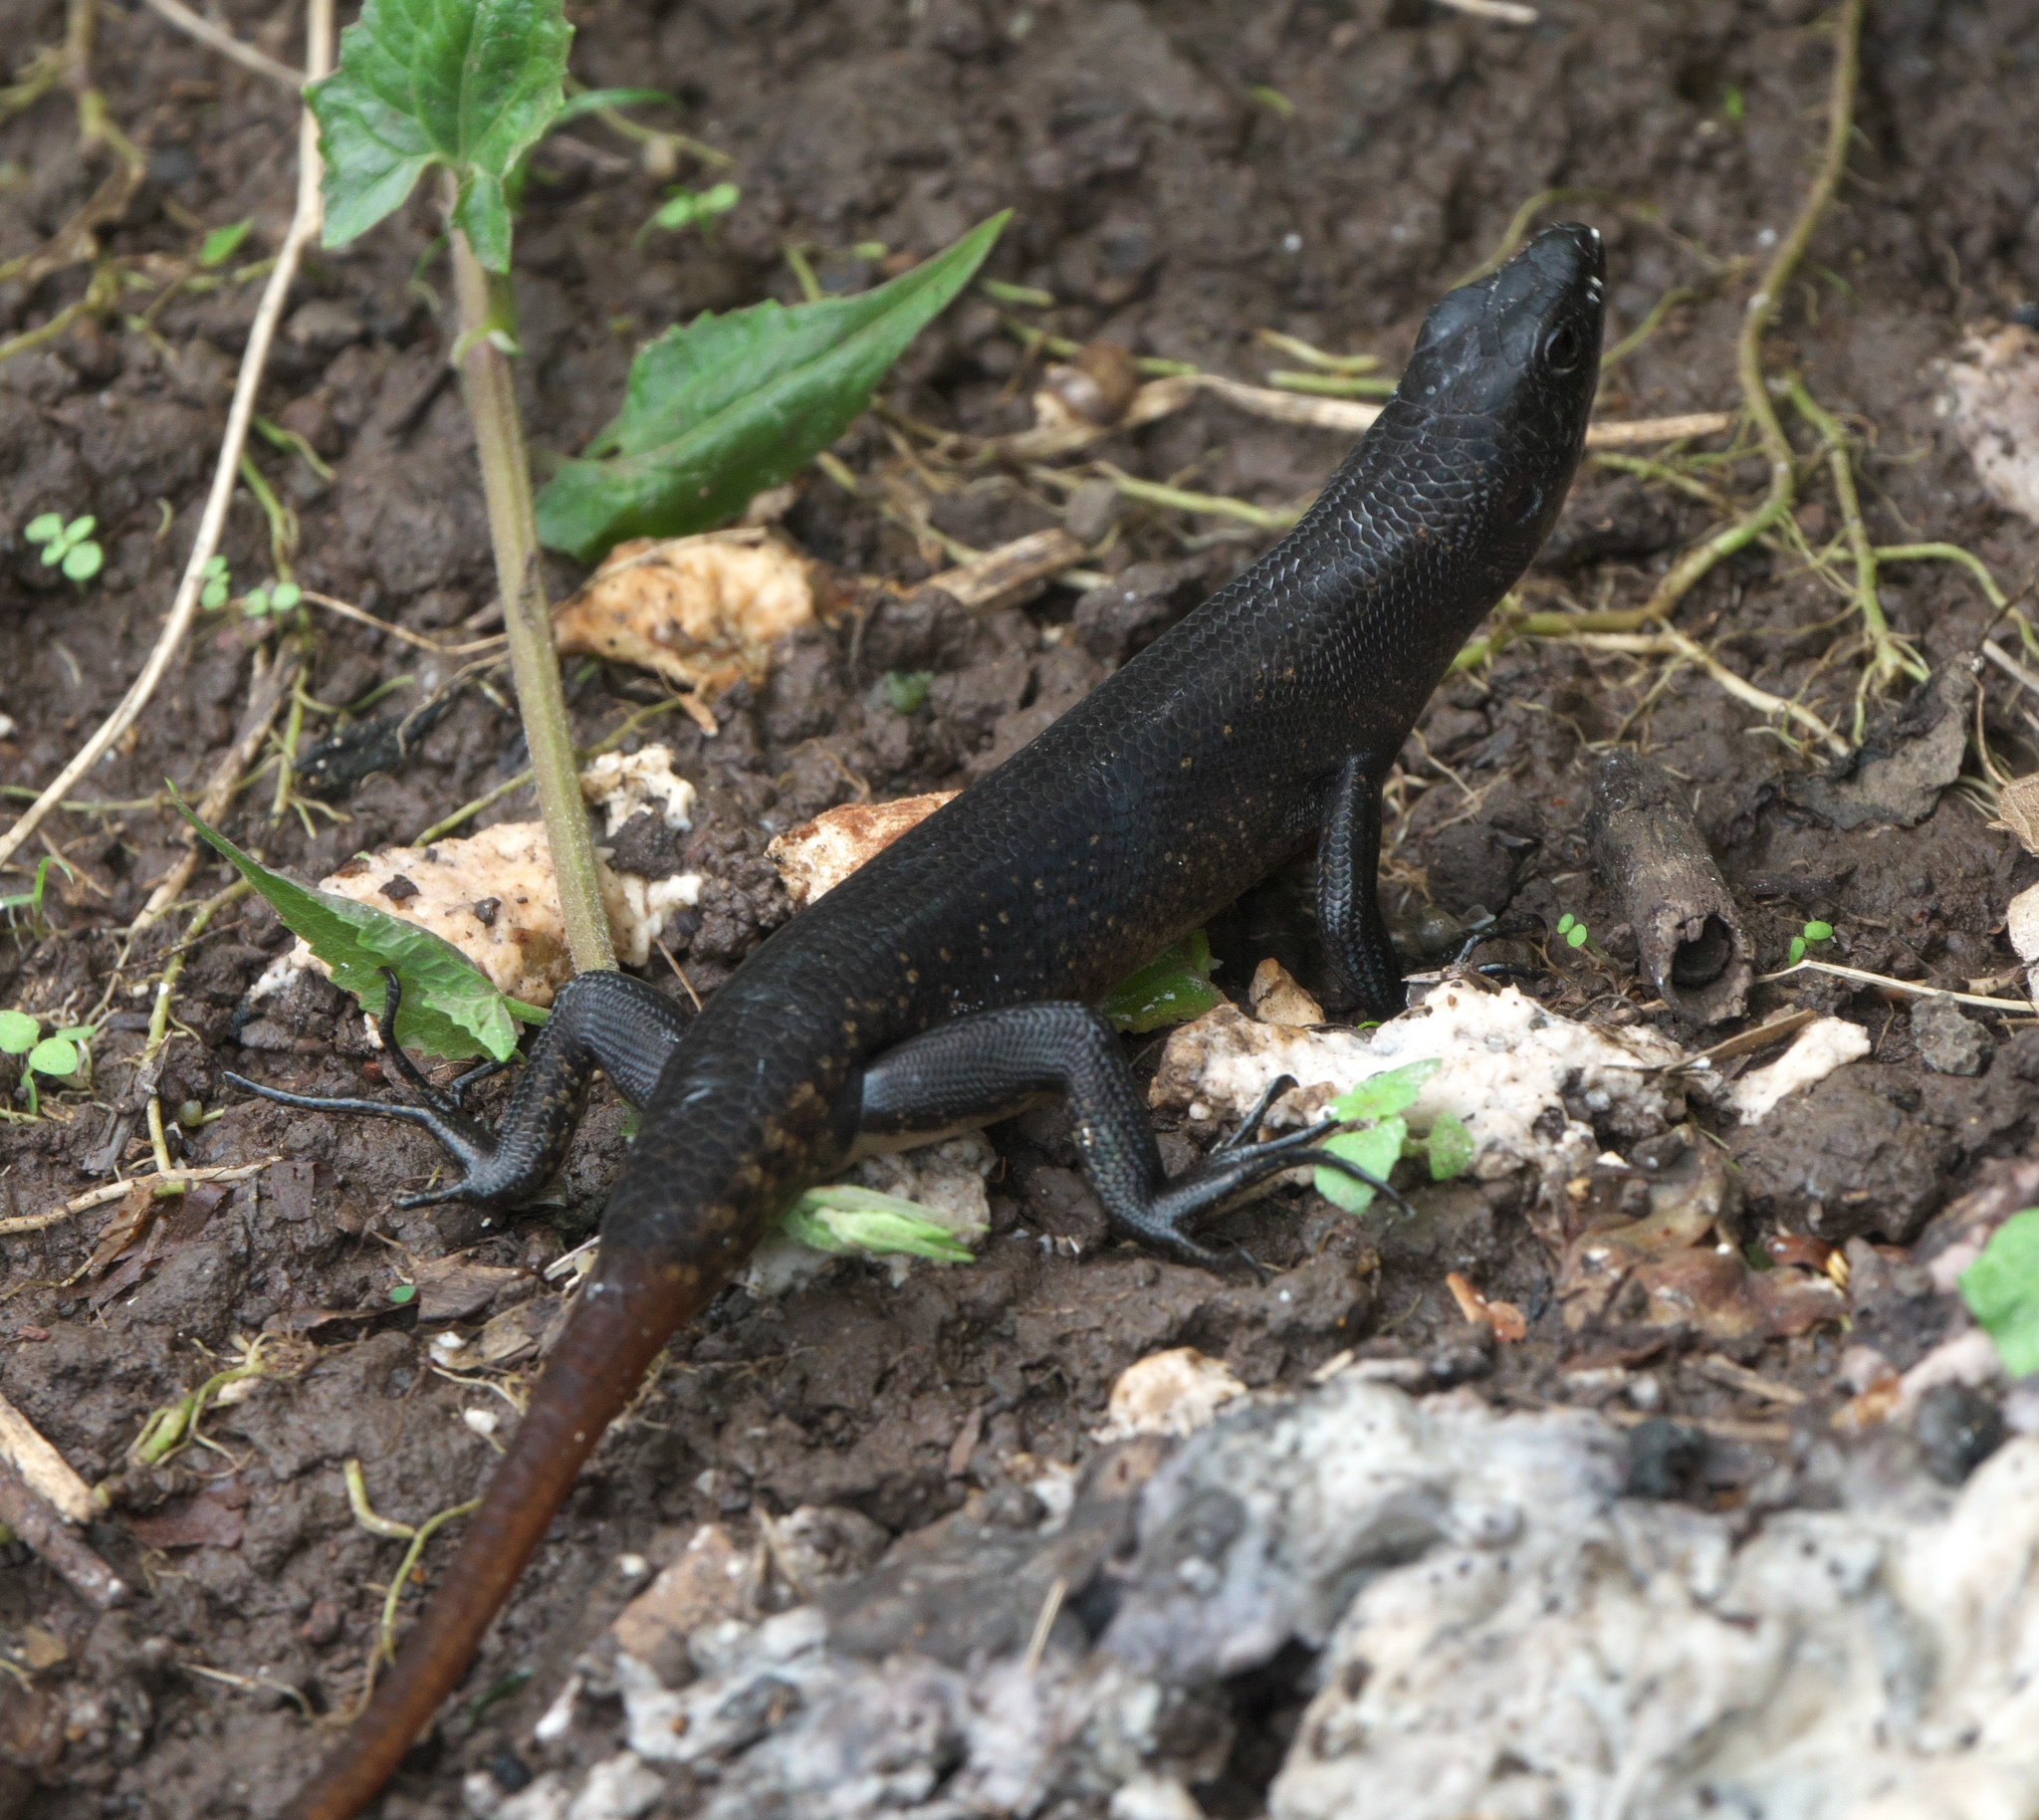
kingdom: Animalia
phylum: Chordata
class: Squamata
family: Scincidae
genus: Emoia
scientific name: Emoia nigra
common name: Black emo skink
